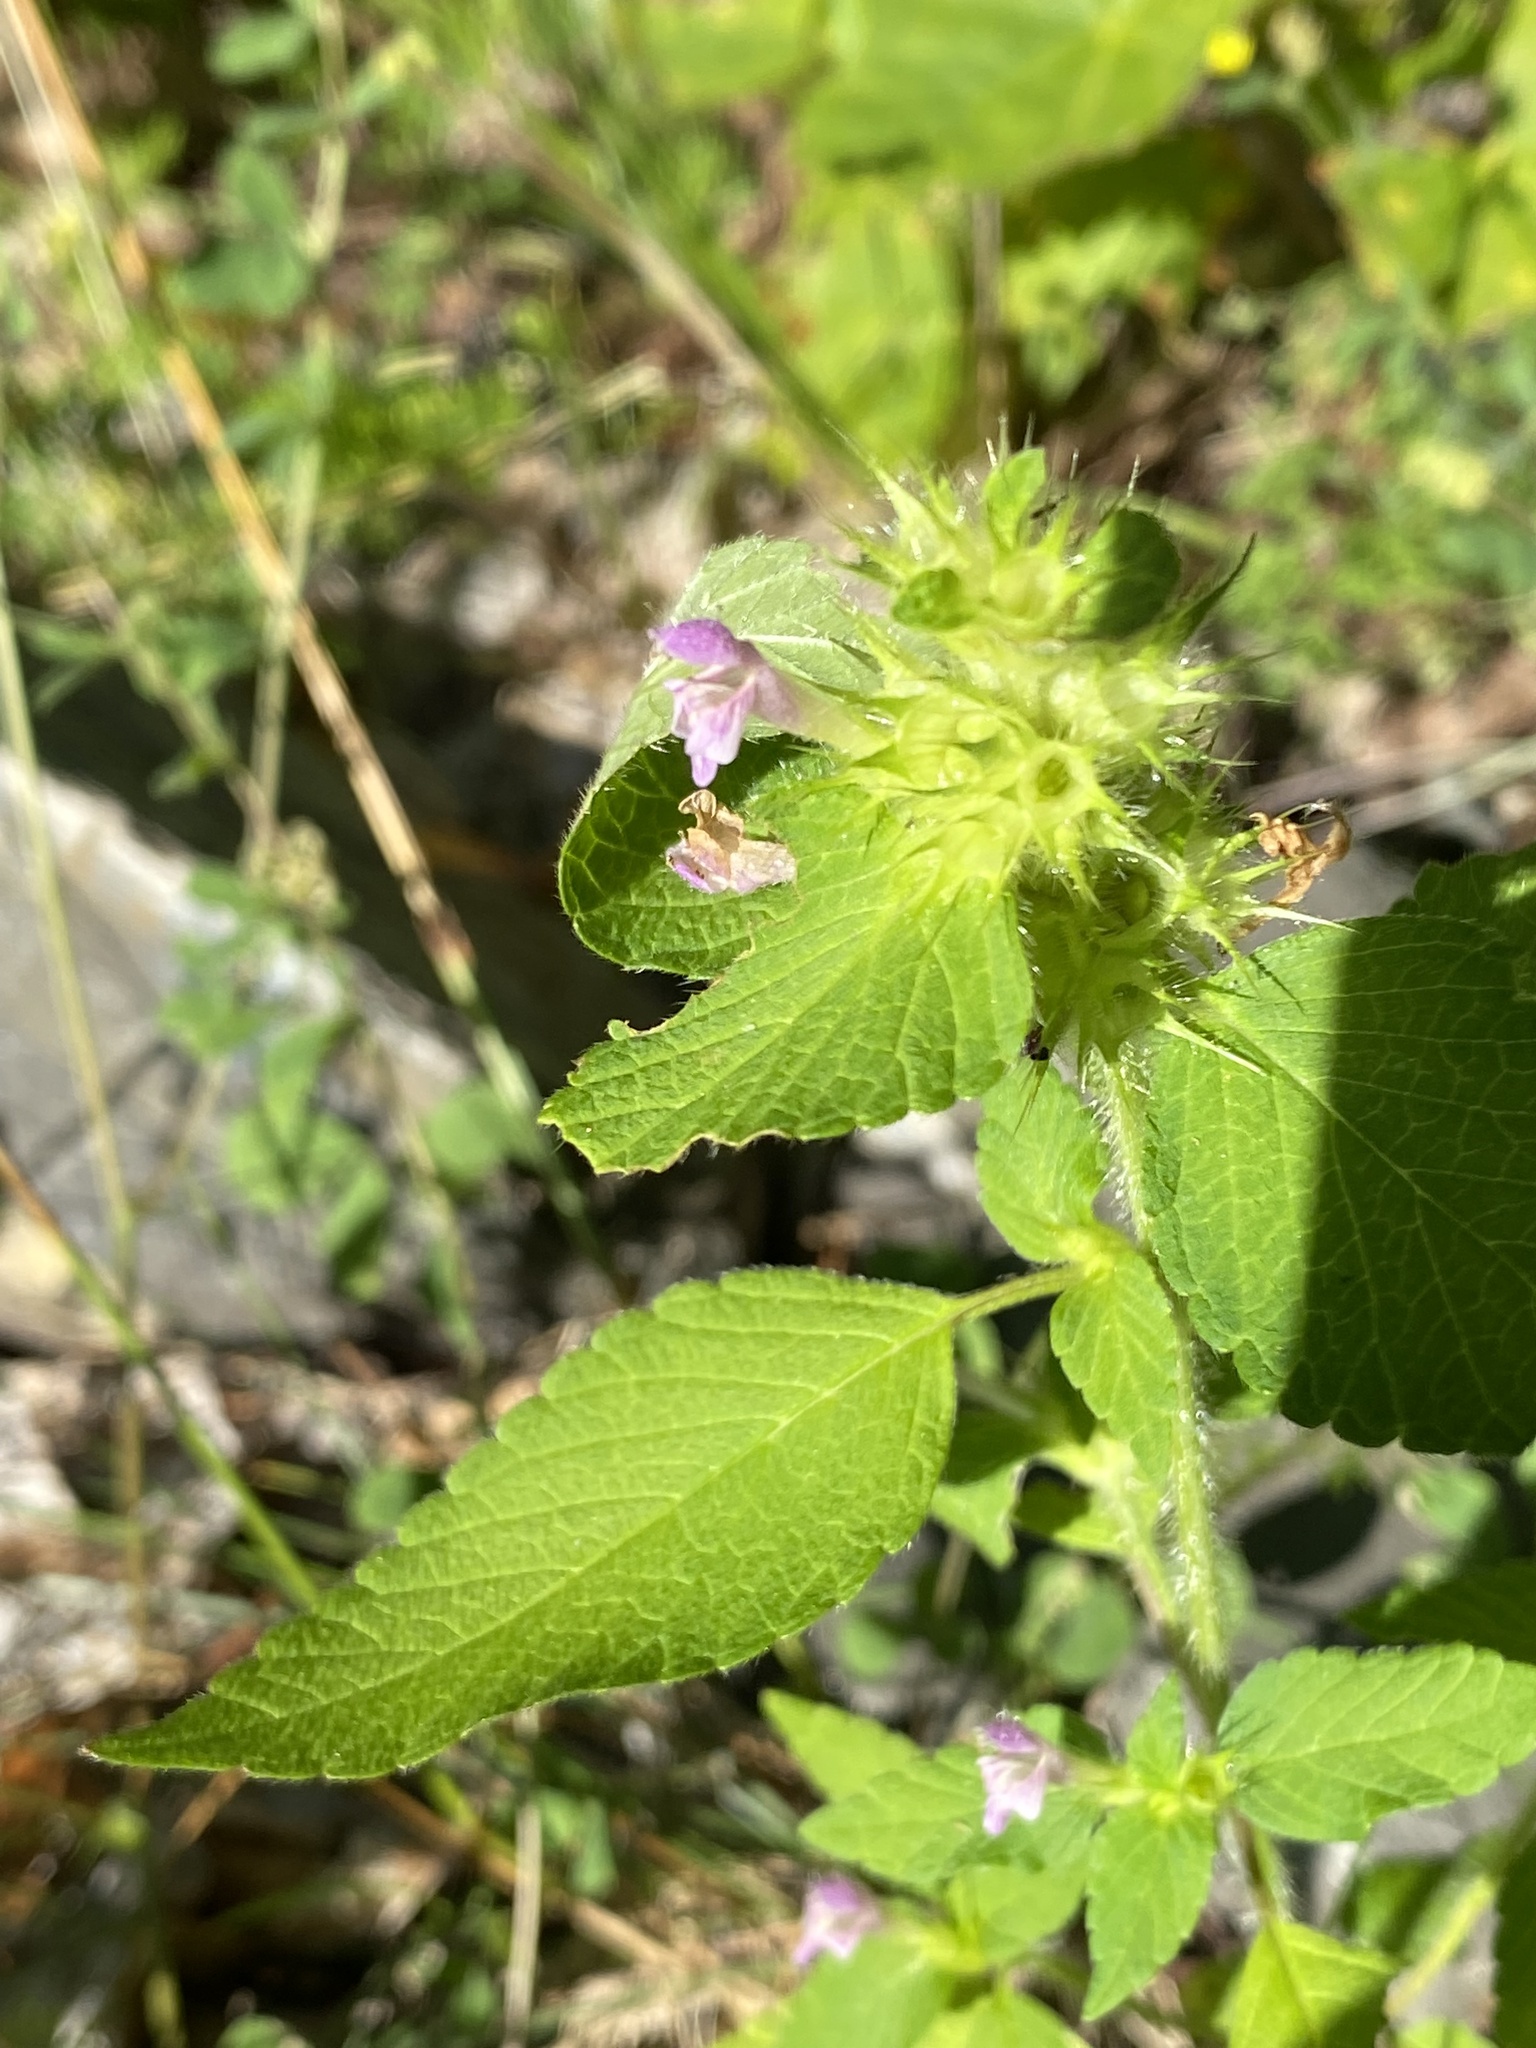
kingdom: Plantae
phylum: Tracheophyta
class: Magnoliopsida
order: Lamiales
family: Lamiaceae
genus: Galeopsis
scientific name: Galeopsis bifida
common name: Bifid hemp-nettle
